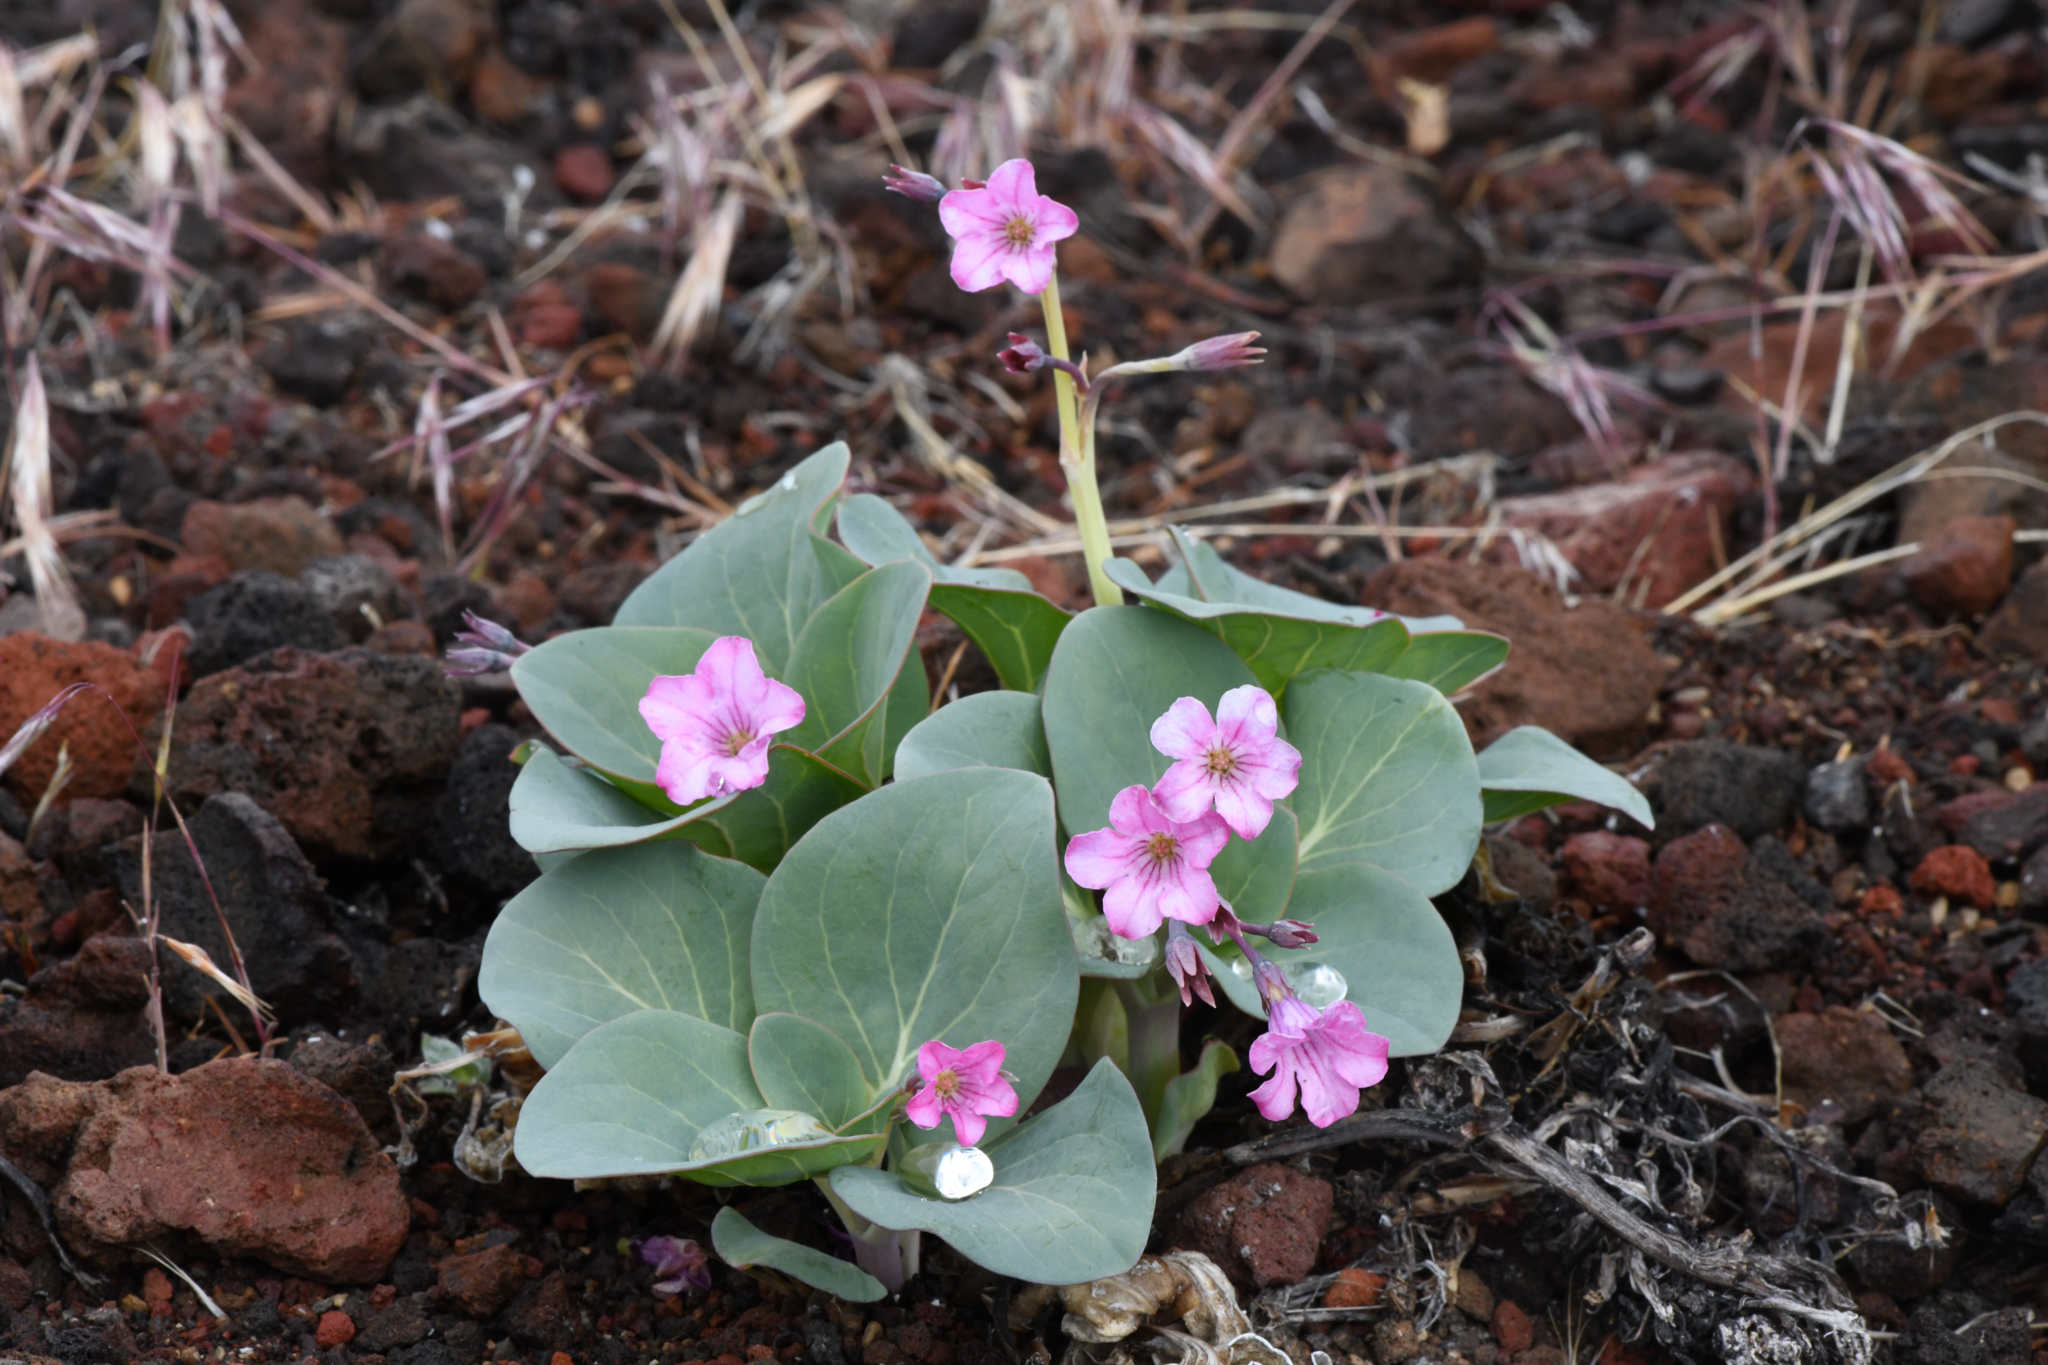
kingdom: Plantae
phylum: Tracheophyta
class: Magnoliopsida
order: Gentianales
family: Apocynaceae
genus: Cycladenia
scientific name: Cycladenia humilis
